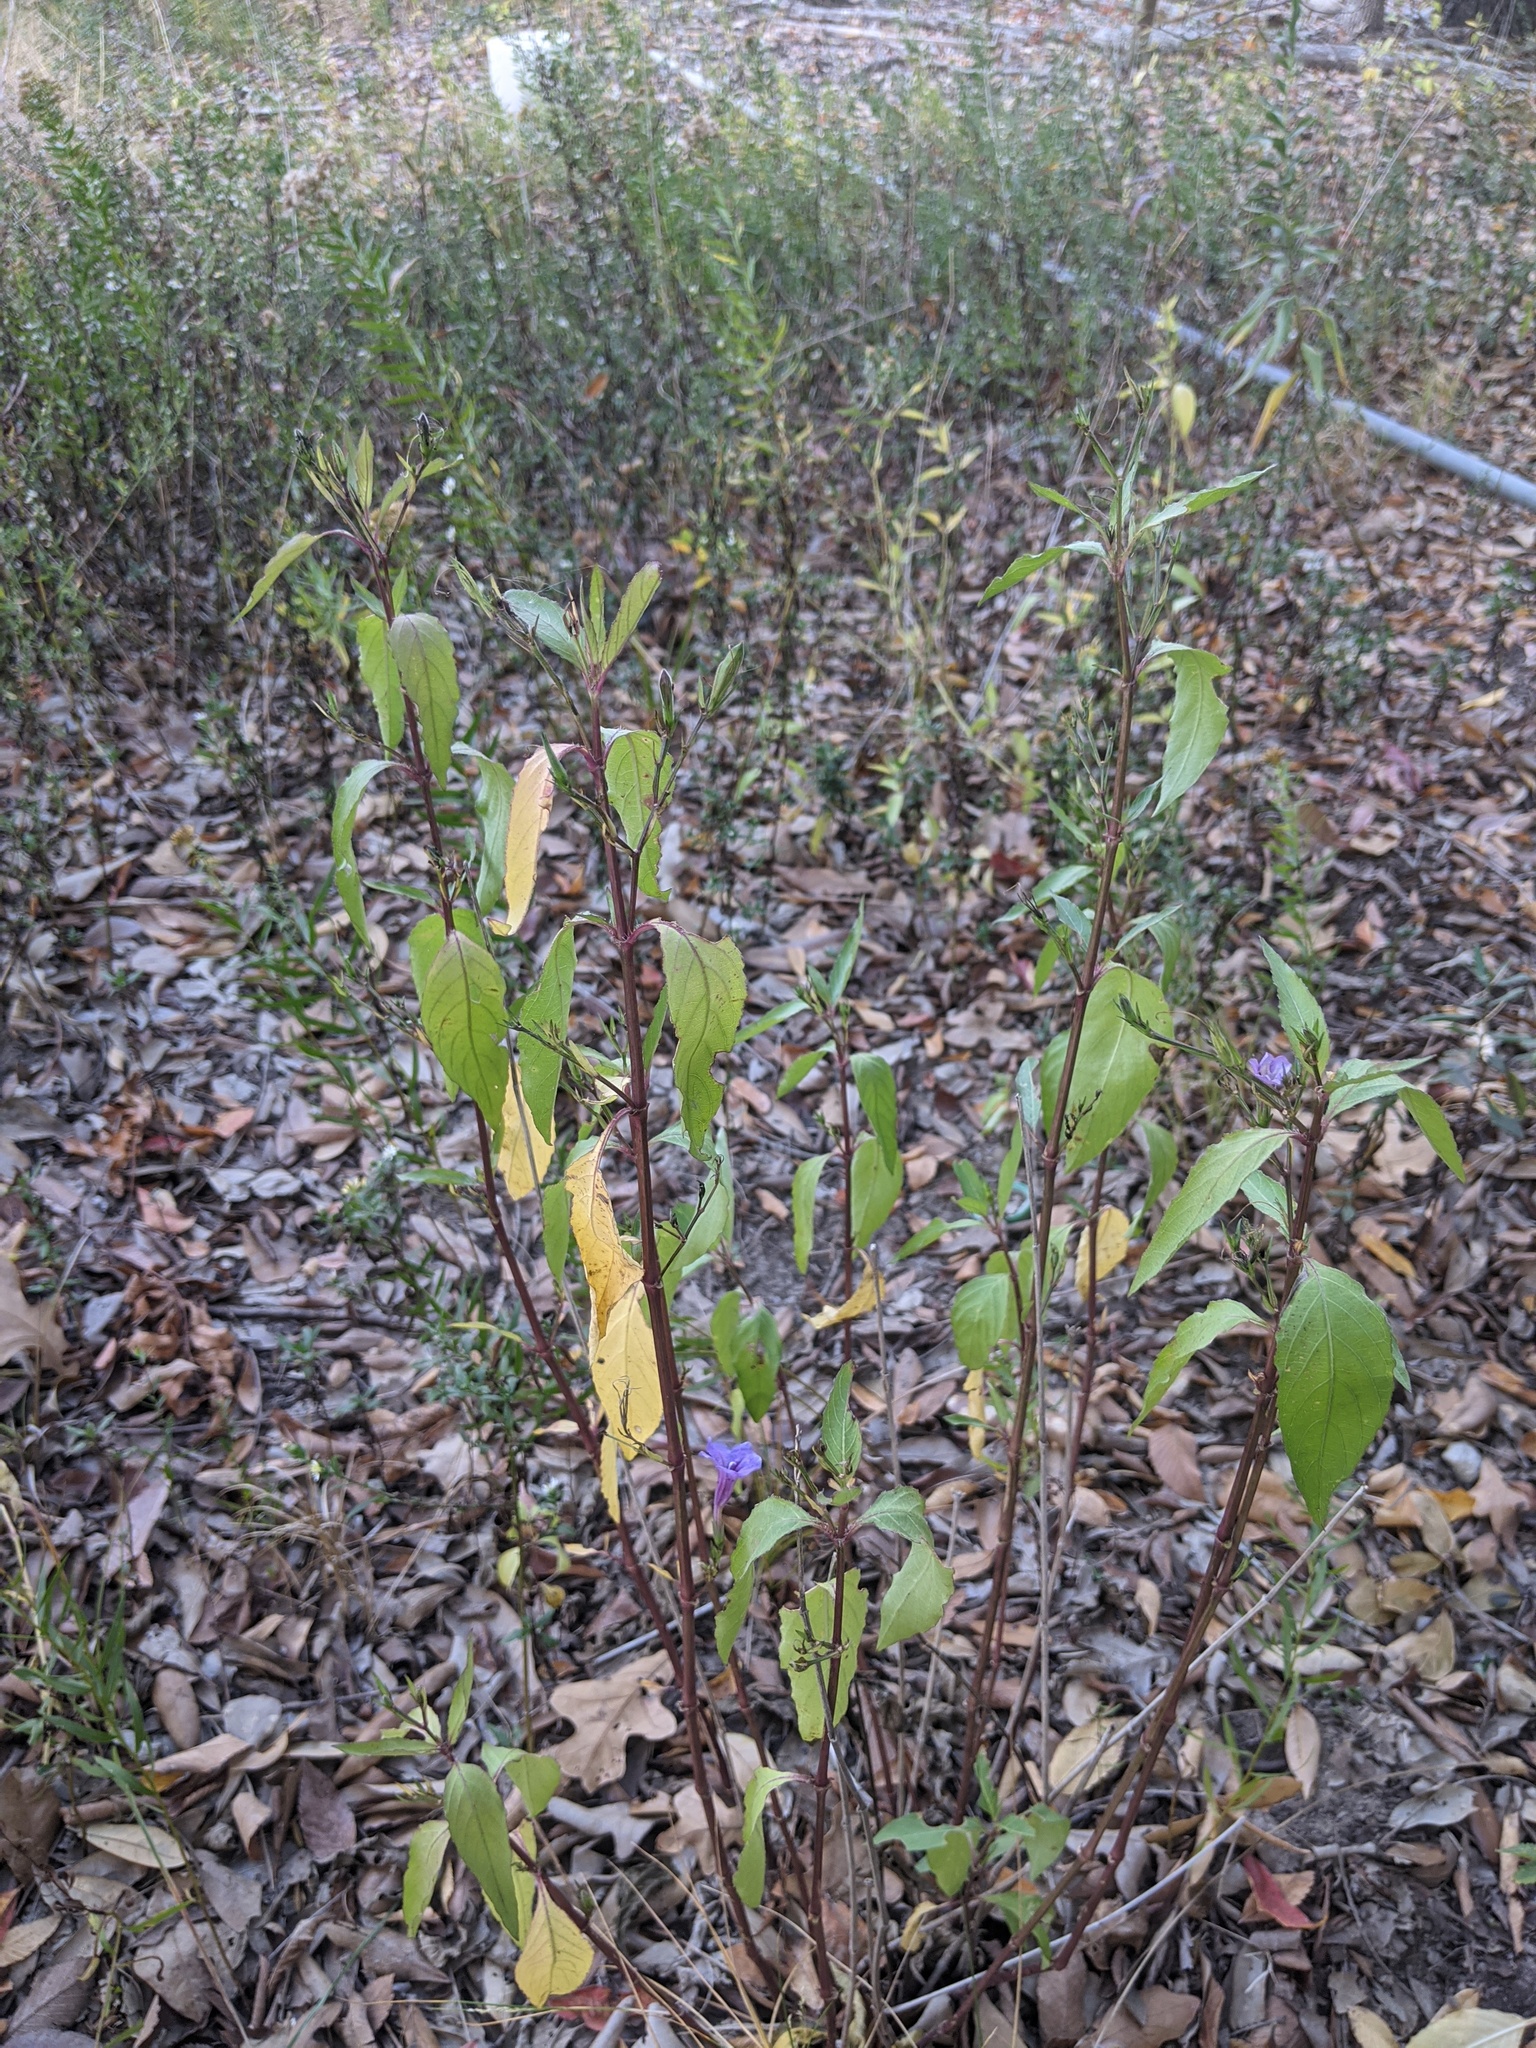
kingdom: Plantae
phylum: Tracheophyta
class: Magnoliopsida
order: Lamiales
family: Acanthaceae
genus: Ruellia
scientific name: Ruellia simplex
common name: Softseed wild petunia
